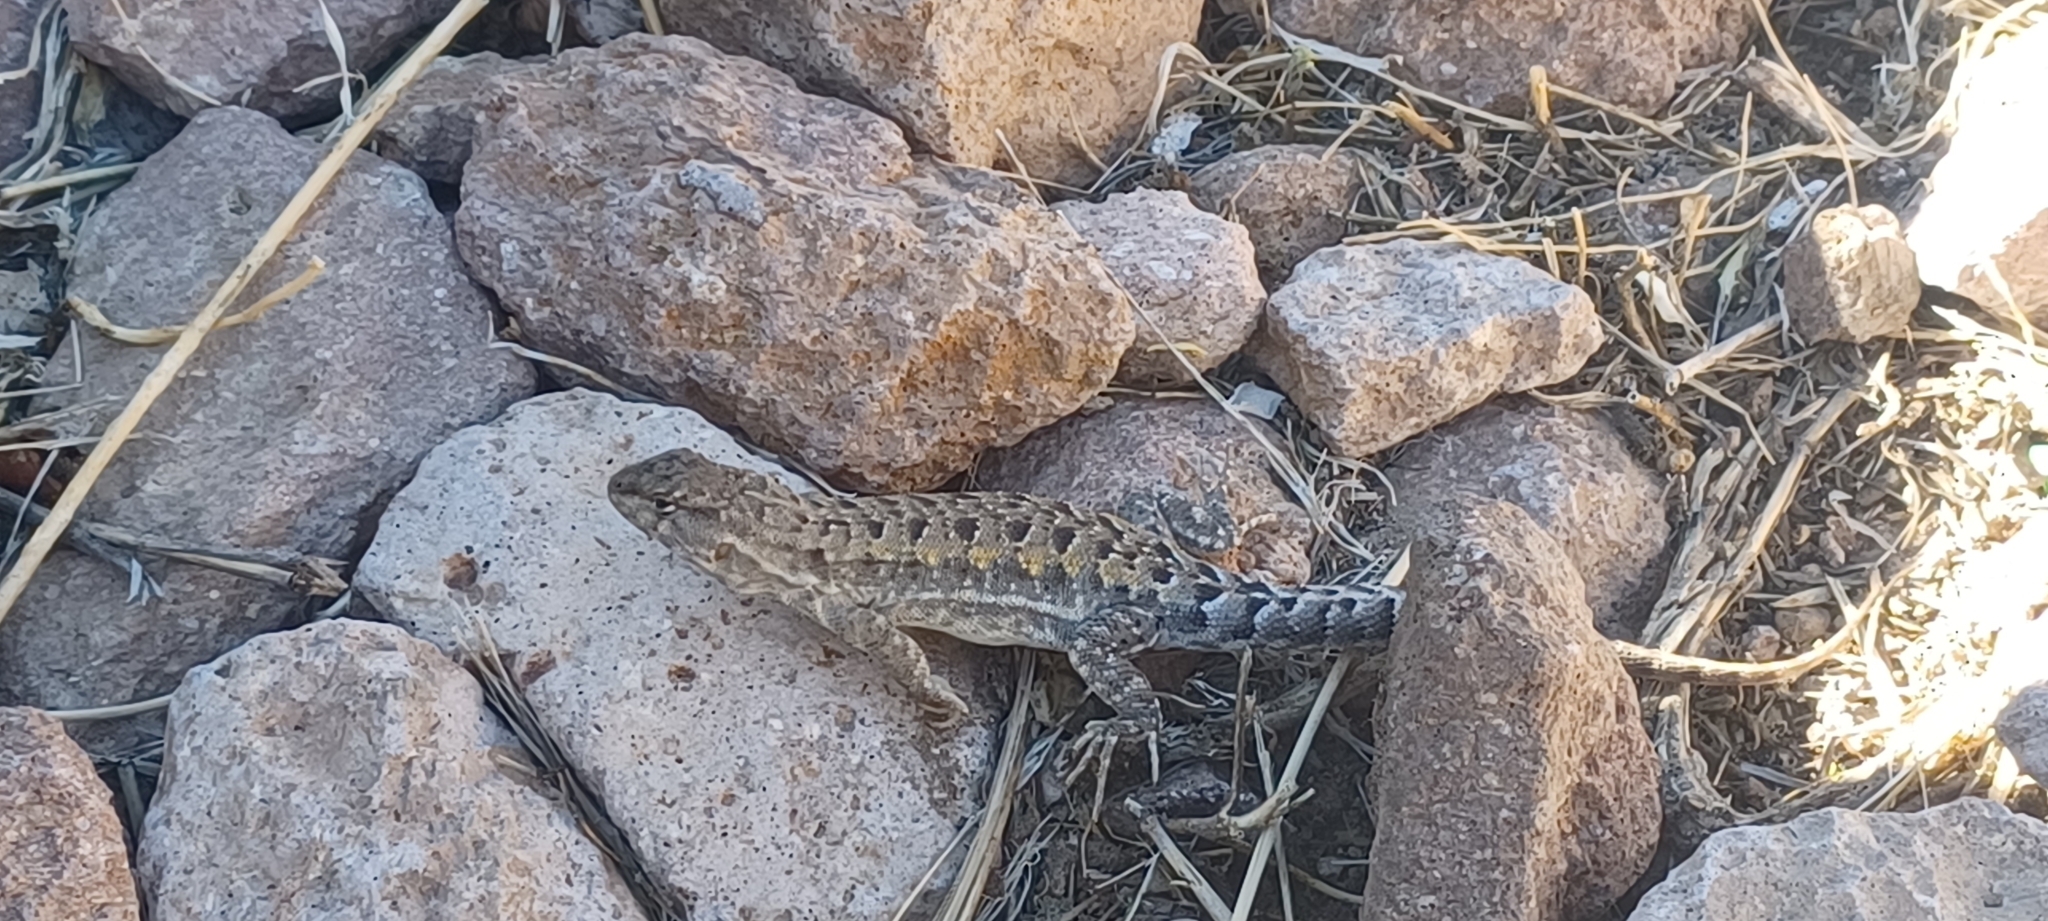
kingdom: Animalia
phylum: Chordata
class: Squamata
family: Liolaemidae
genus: Liolaemus
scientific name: Liolaemus schmidti
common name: Schmidt's tree iguana
